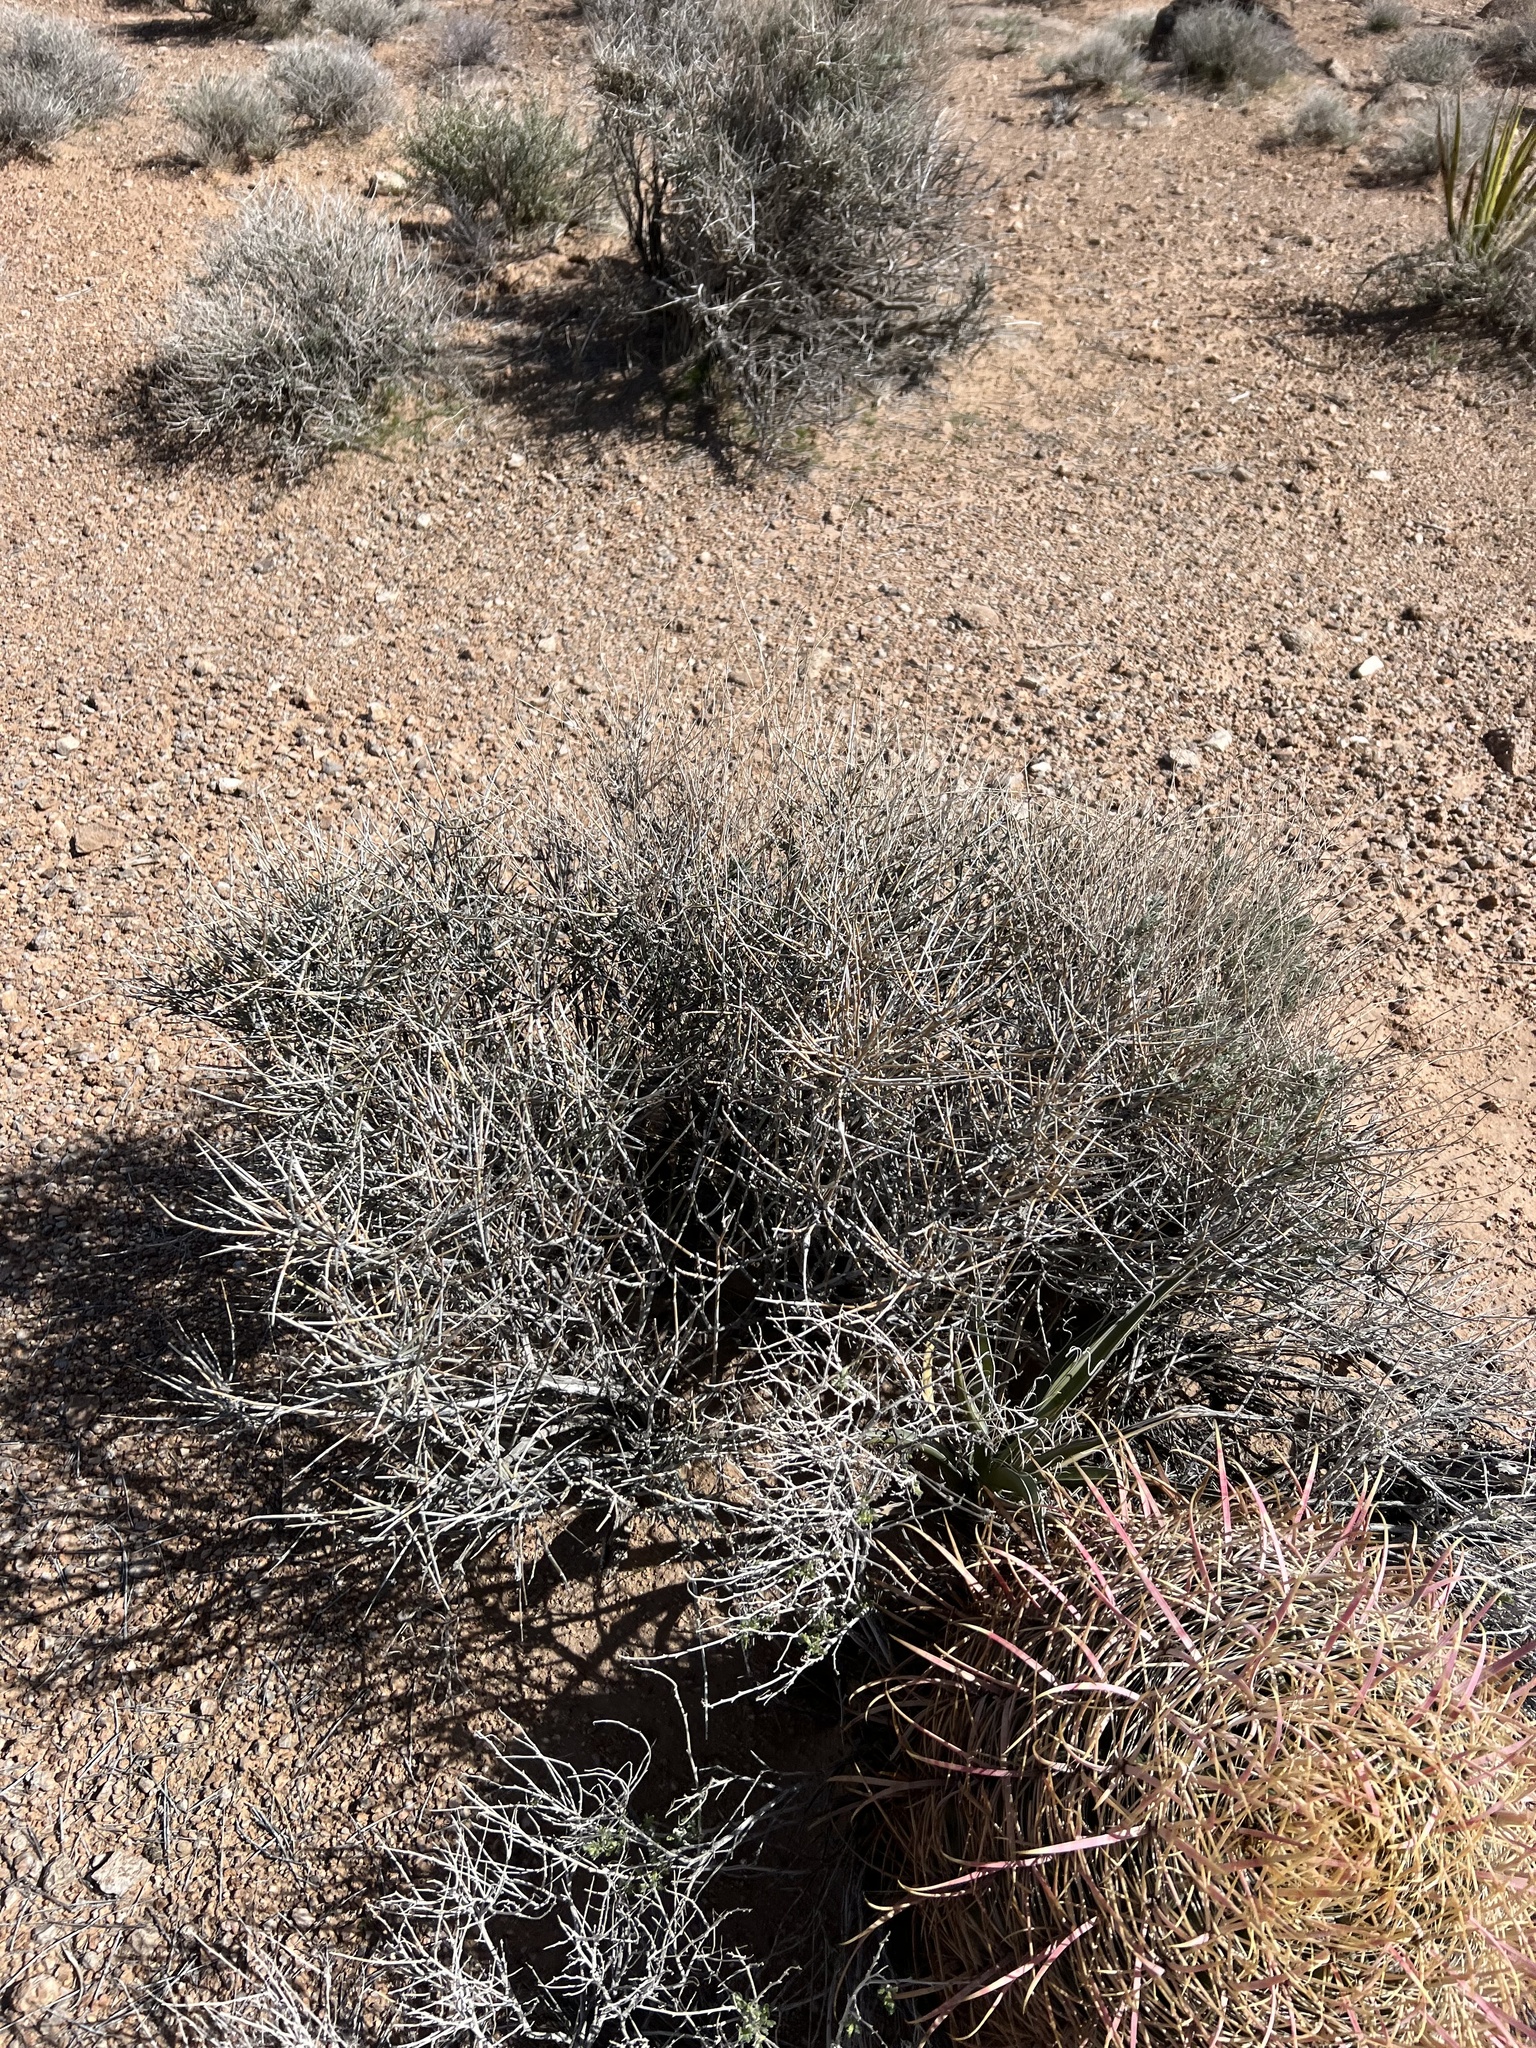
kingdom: Plantae
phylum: Tracheophyta
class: Gnetopsida
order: Ephedrales
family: Ephedraceae
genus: Ephedra
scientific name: Ephedra nevadensis
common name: Gray ephedra
